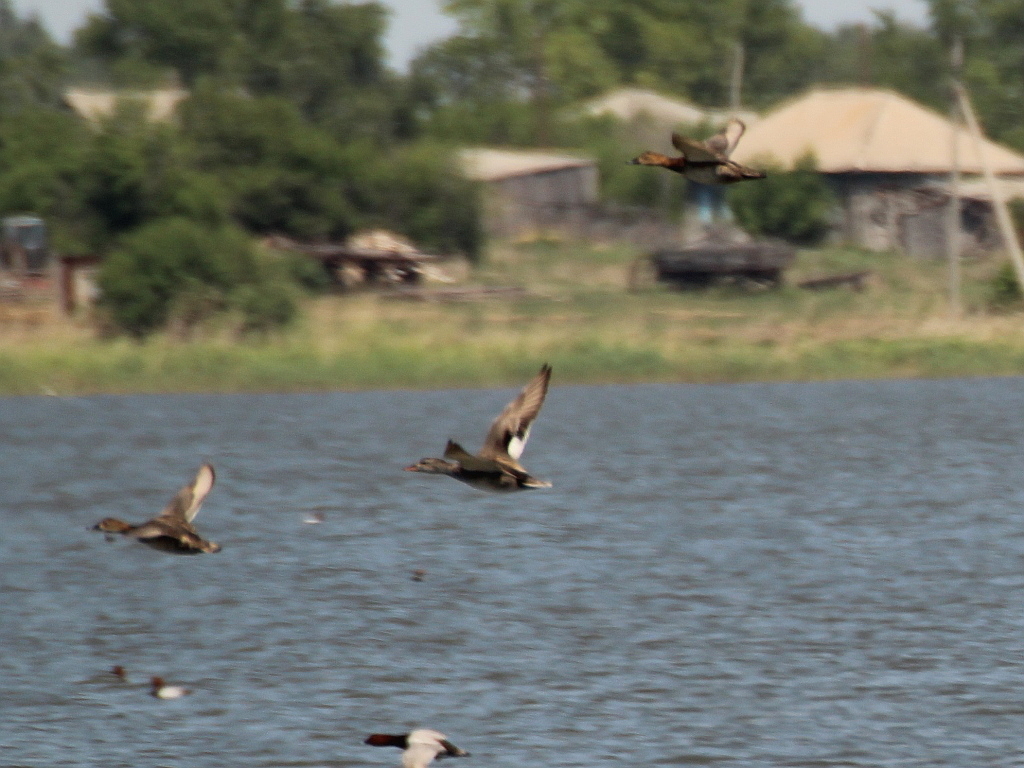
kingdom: Animalia
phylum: Chordata
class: Aves
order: Anseriformes
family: Anatidae
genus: Mareca
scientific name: Mareca strepera
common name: Gadwall
